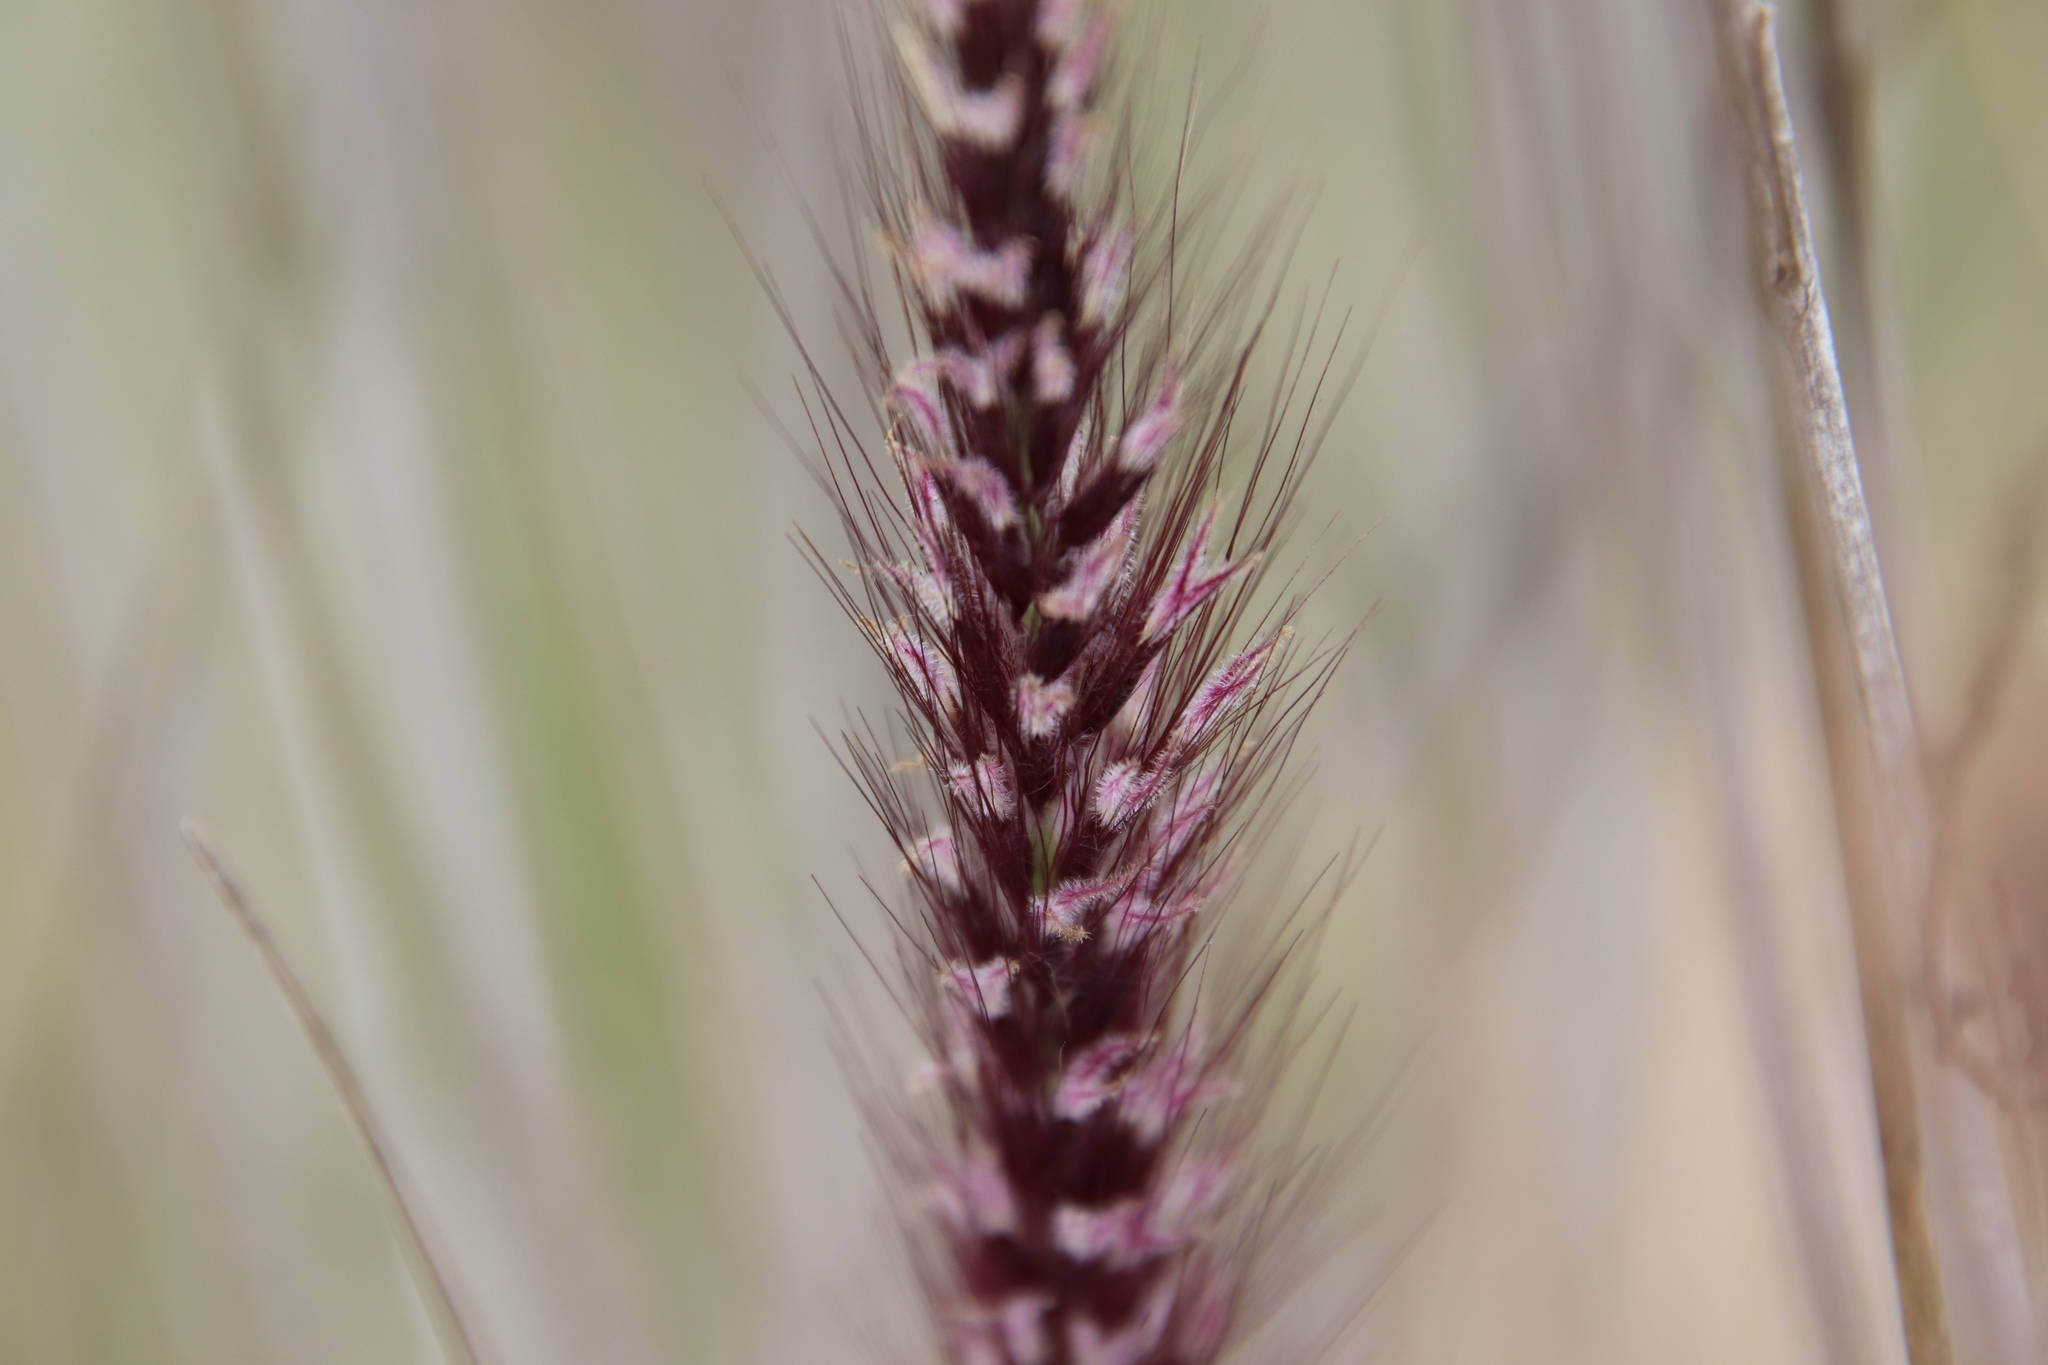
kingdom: Plantae
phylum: Tracheophyta
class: Liliopsida
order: Poales
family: Poaceae
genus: Cenchrus
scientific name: Cenchrus setaceus
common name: Crimson fountaingrass
